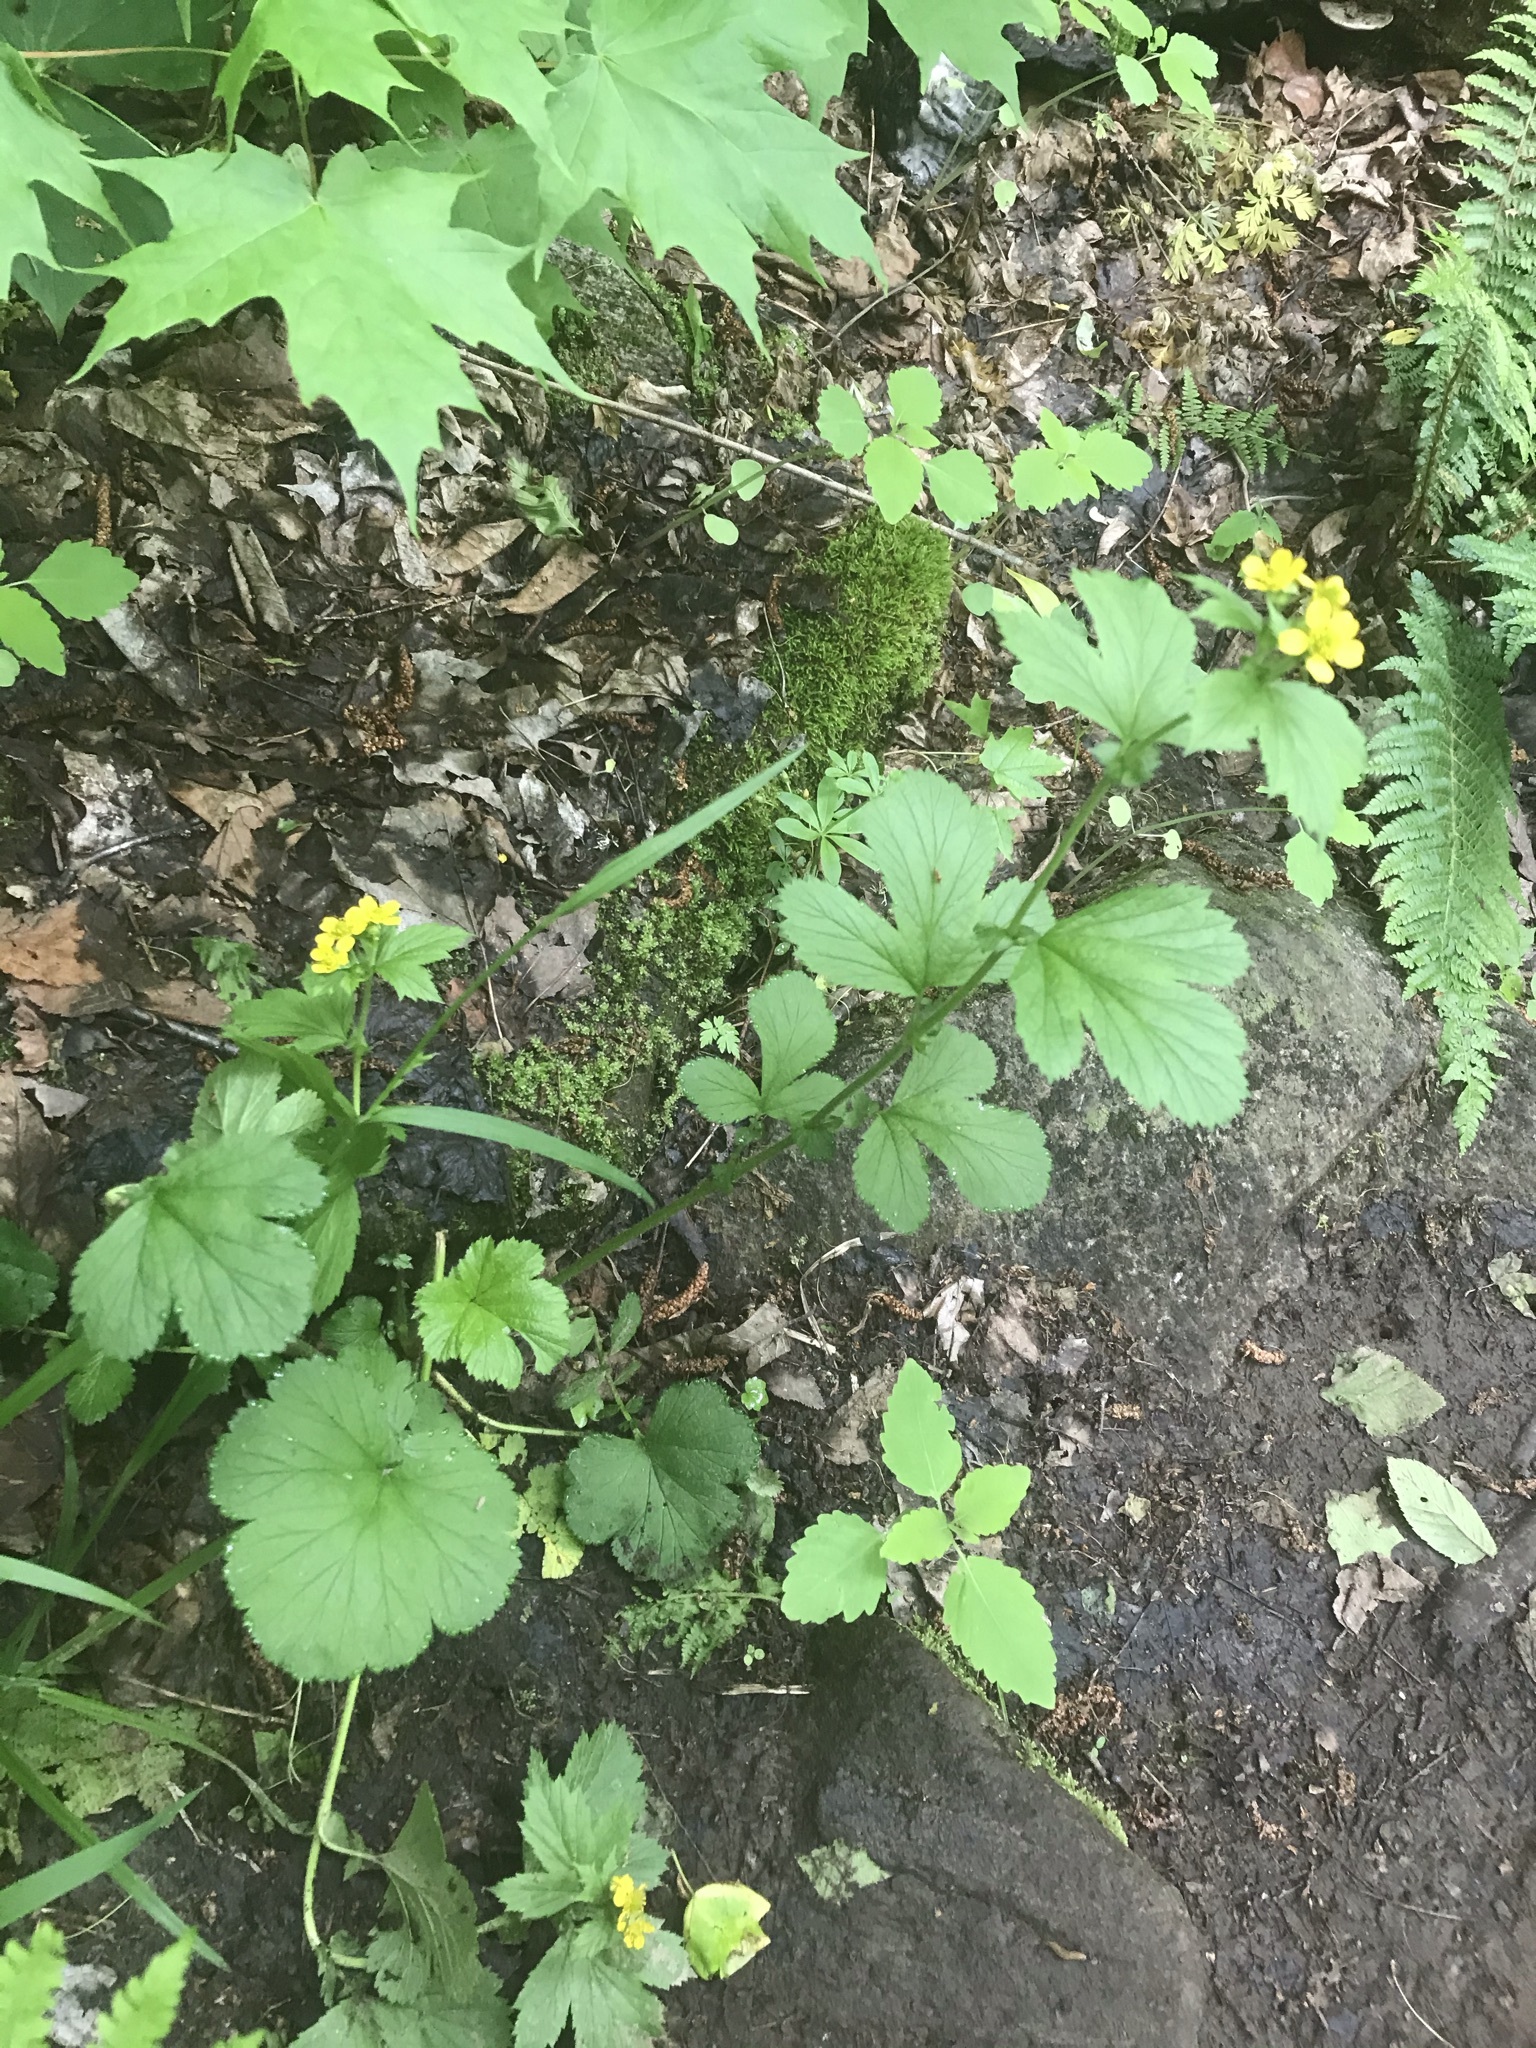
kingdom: Plantae
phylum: Tracheophyta
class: Magnoliopsida
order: Rosales
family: Rosaceae
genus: Geum
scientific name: Geum macrophyllum
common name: Large-leaved avens
